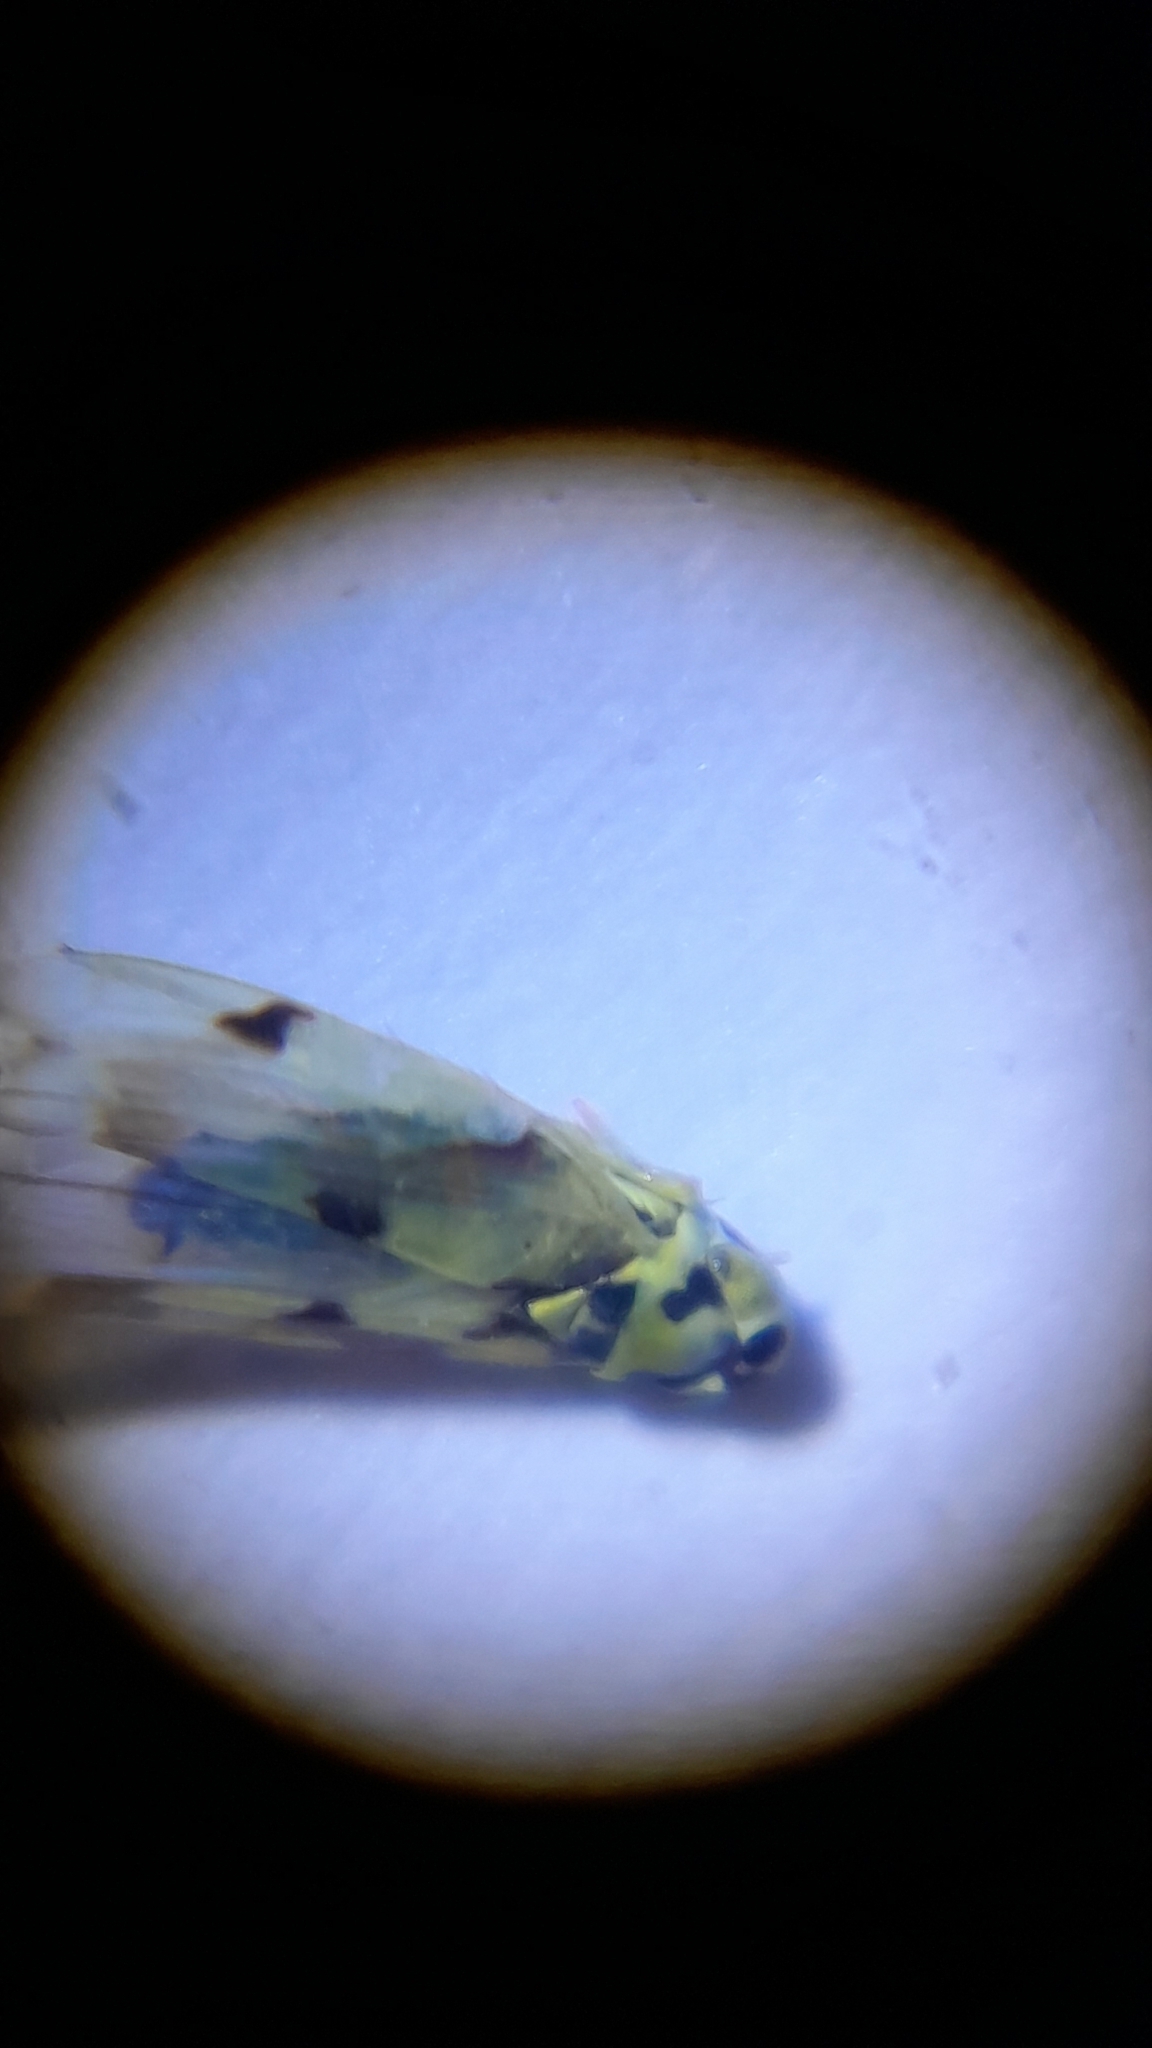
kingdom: Animalia
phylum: Arthropoda
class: Insecta
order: Hemiptera
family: Cicadellidae
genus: Eupteryx
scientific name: Eupteryx atropunctata
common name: Leafhopper
